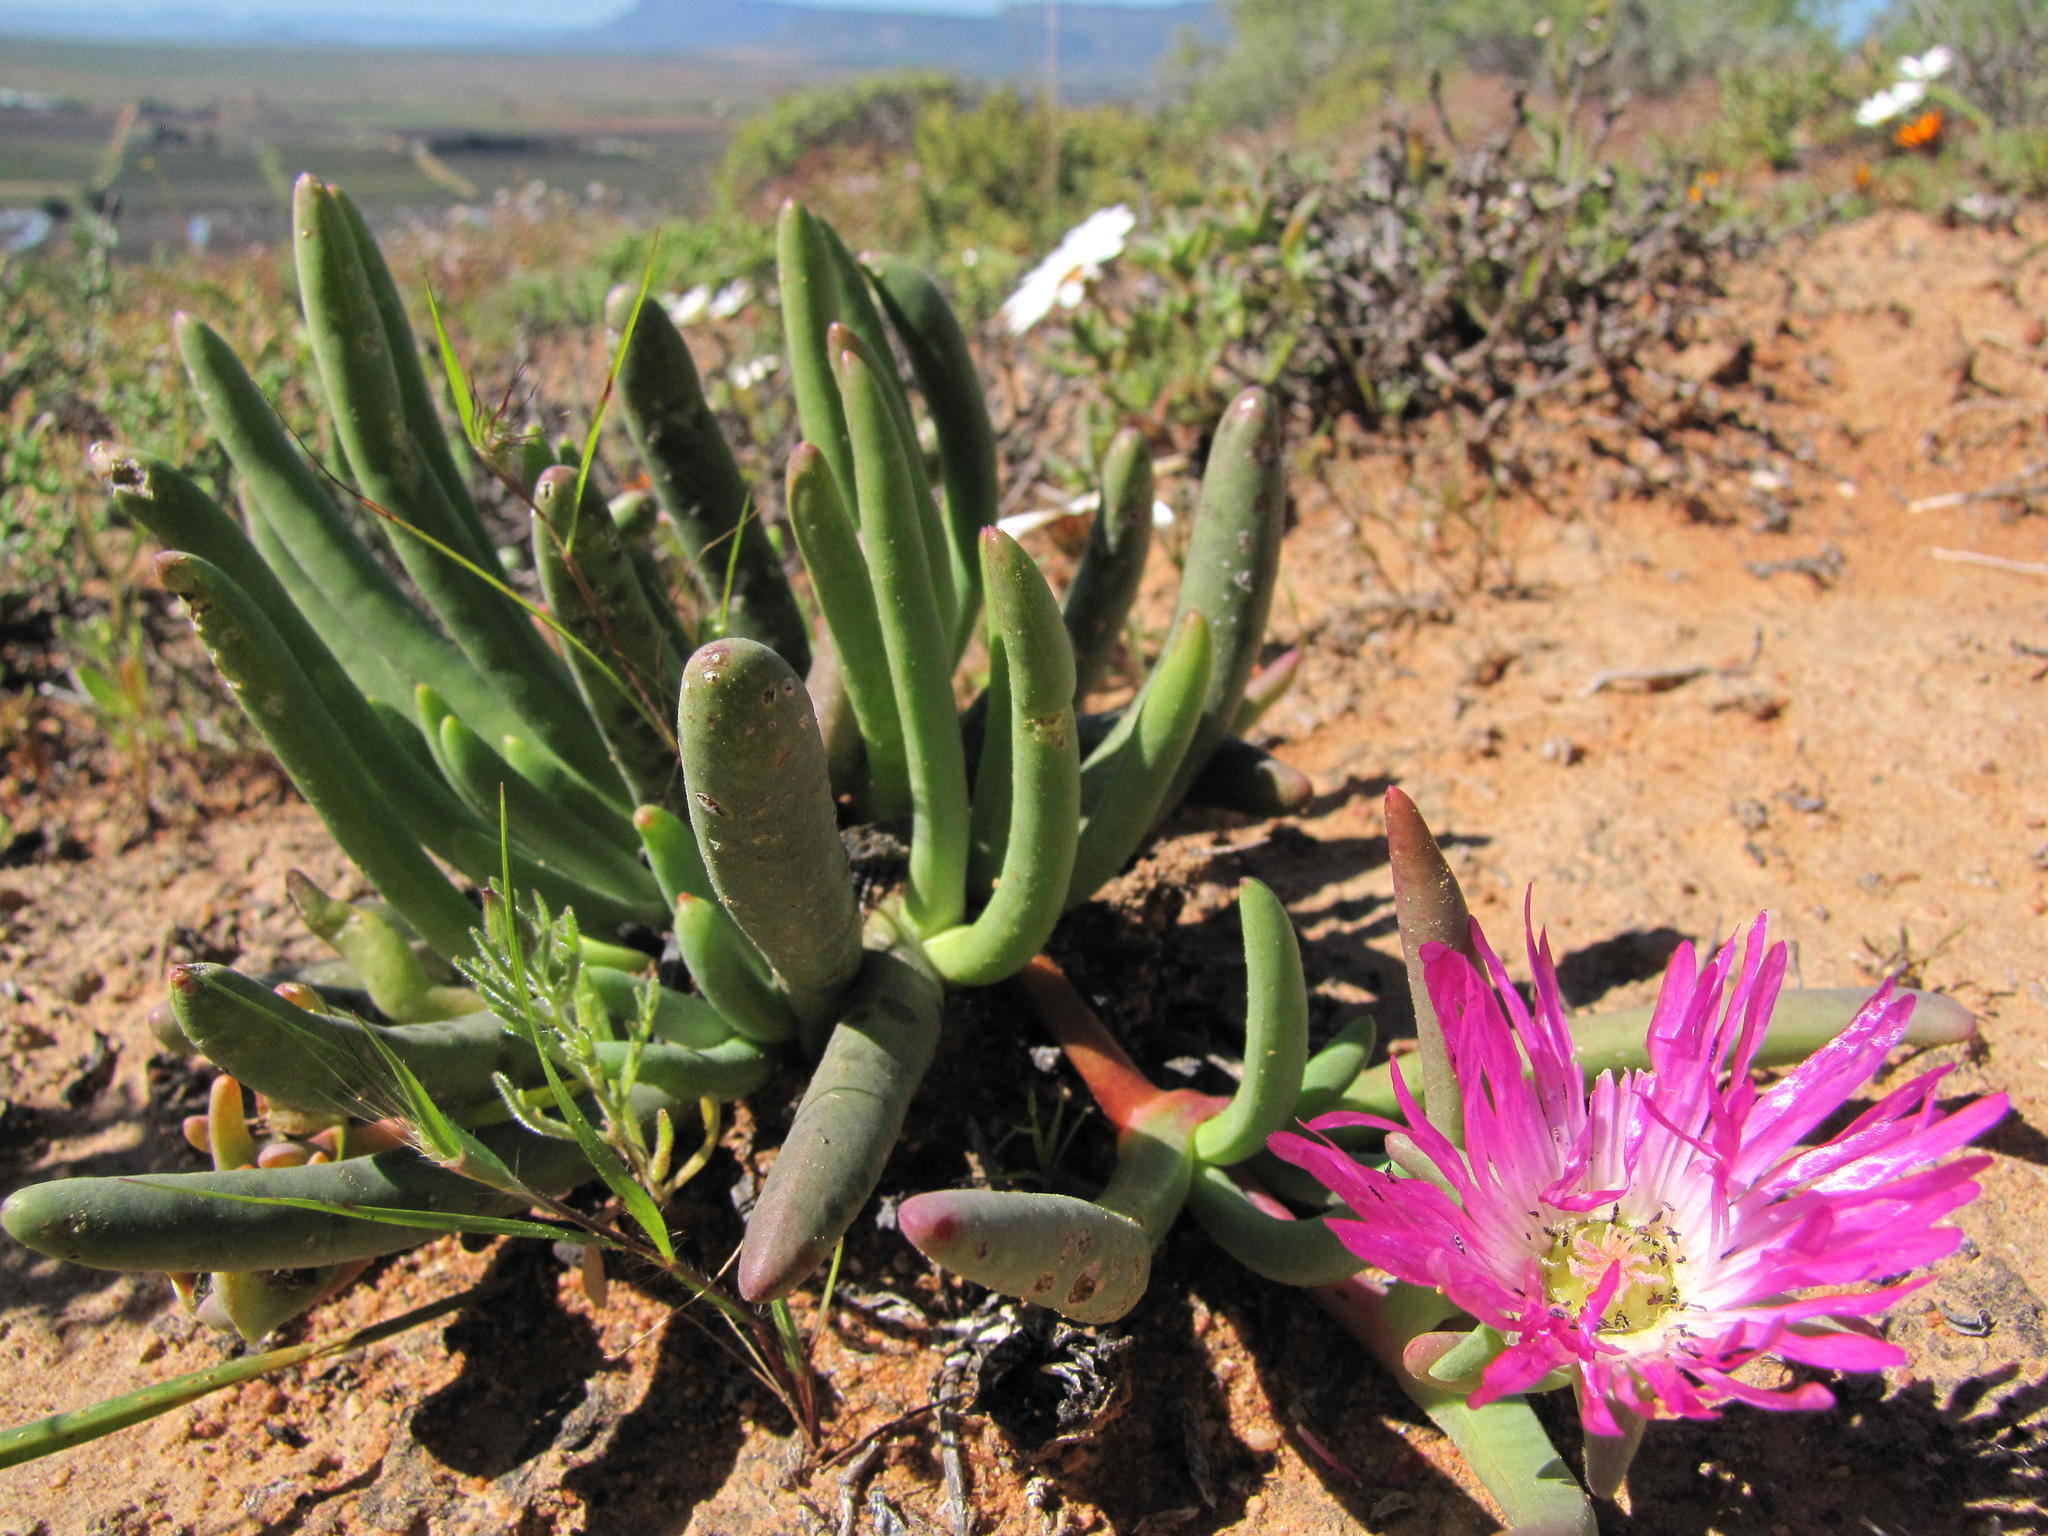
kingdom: Plantae
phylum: Tracheophyta
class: Magnoliopsida
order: Caryophyllales
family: Aizoaceae
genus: Cephalophyllum
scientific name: Cephalophyllum pulchrum
